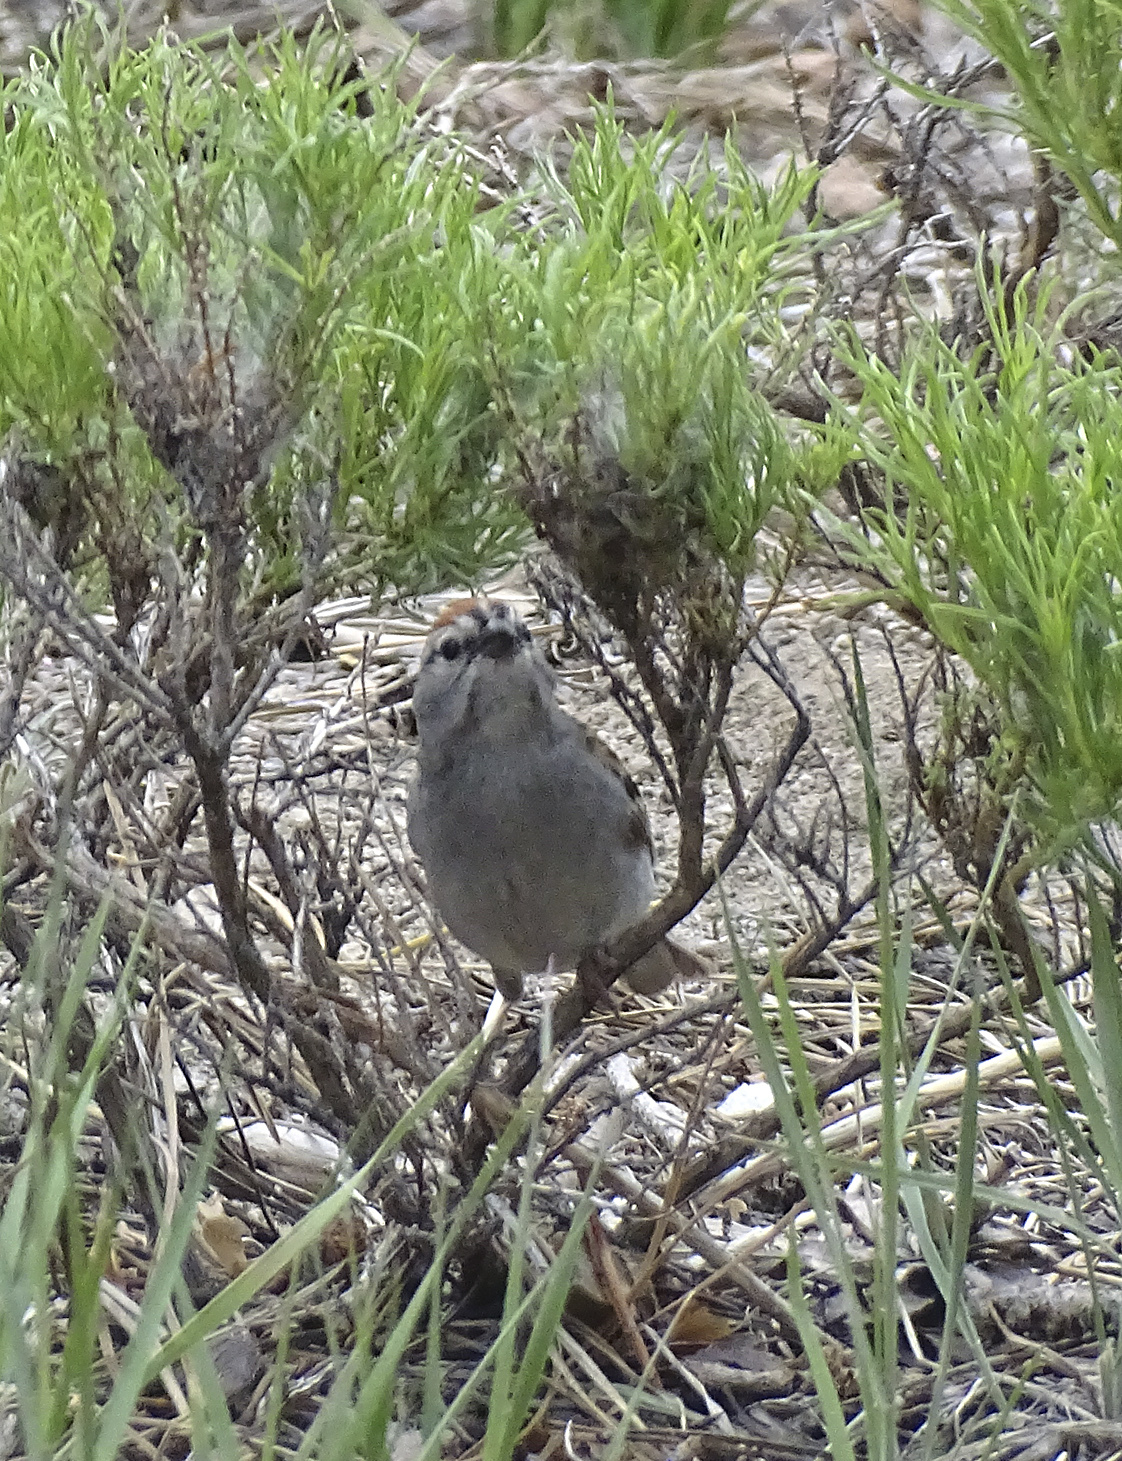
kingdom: Animalia
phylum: Chordata
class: Aves
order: Passeriformes
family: Passerellidae
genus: Spizella
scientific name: Spizella passerina
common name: Chipping sparrow
